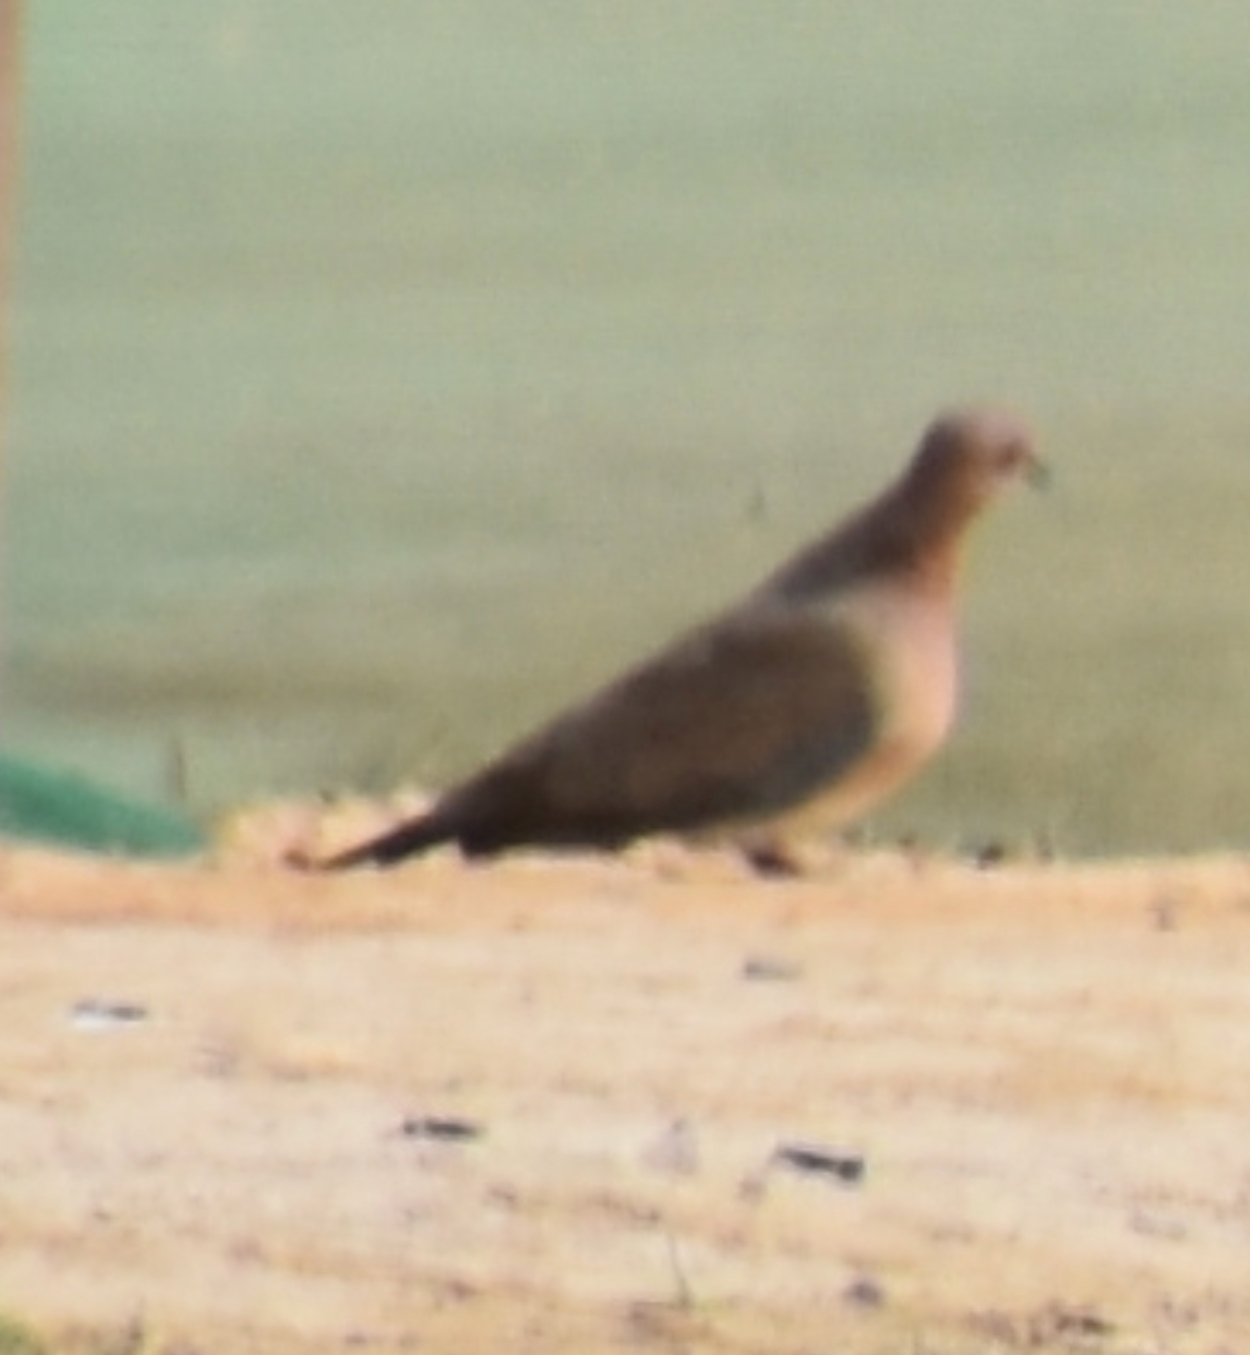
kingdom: Animalia
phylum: Chordata
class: Aves
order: Columbiformes
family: Columbidae
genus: Spilopelia
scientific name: Spilopelia senegalensis
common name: Laughing dove
